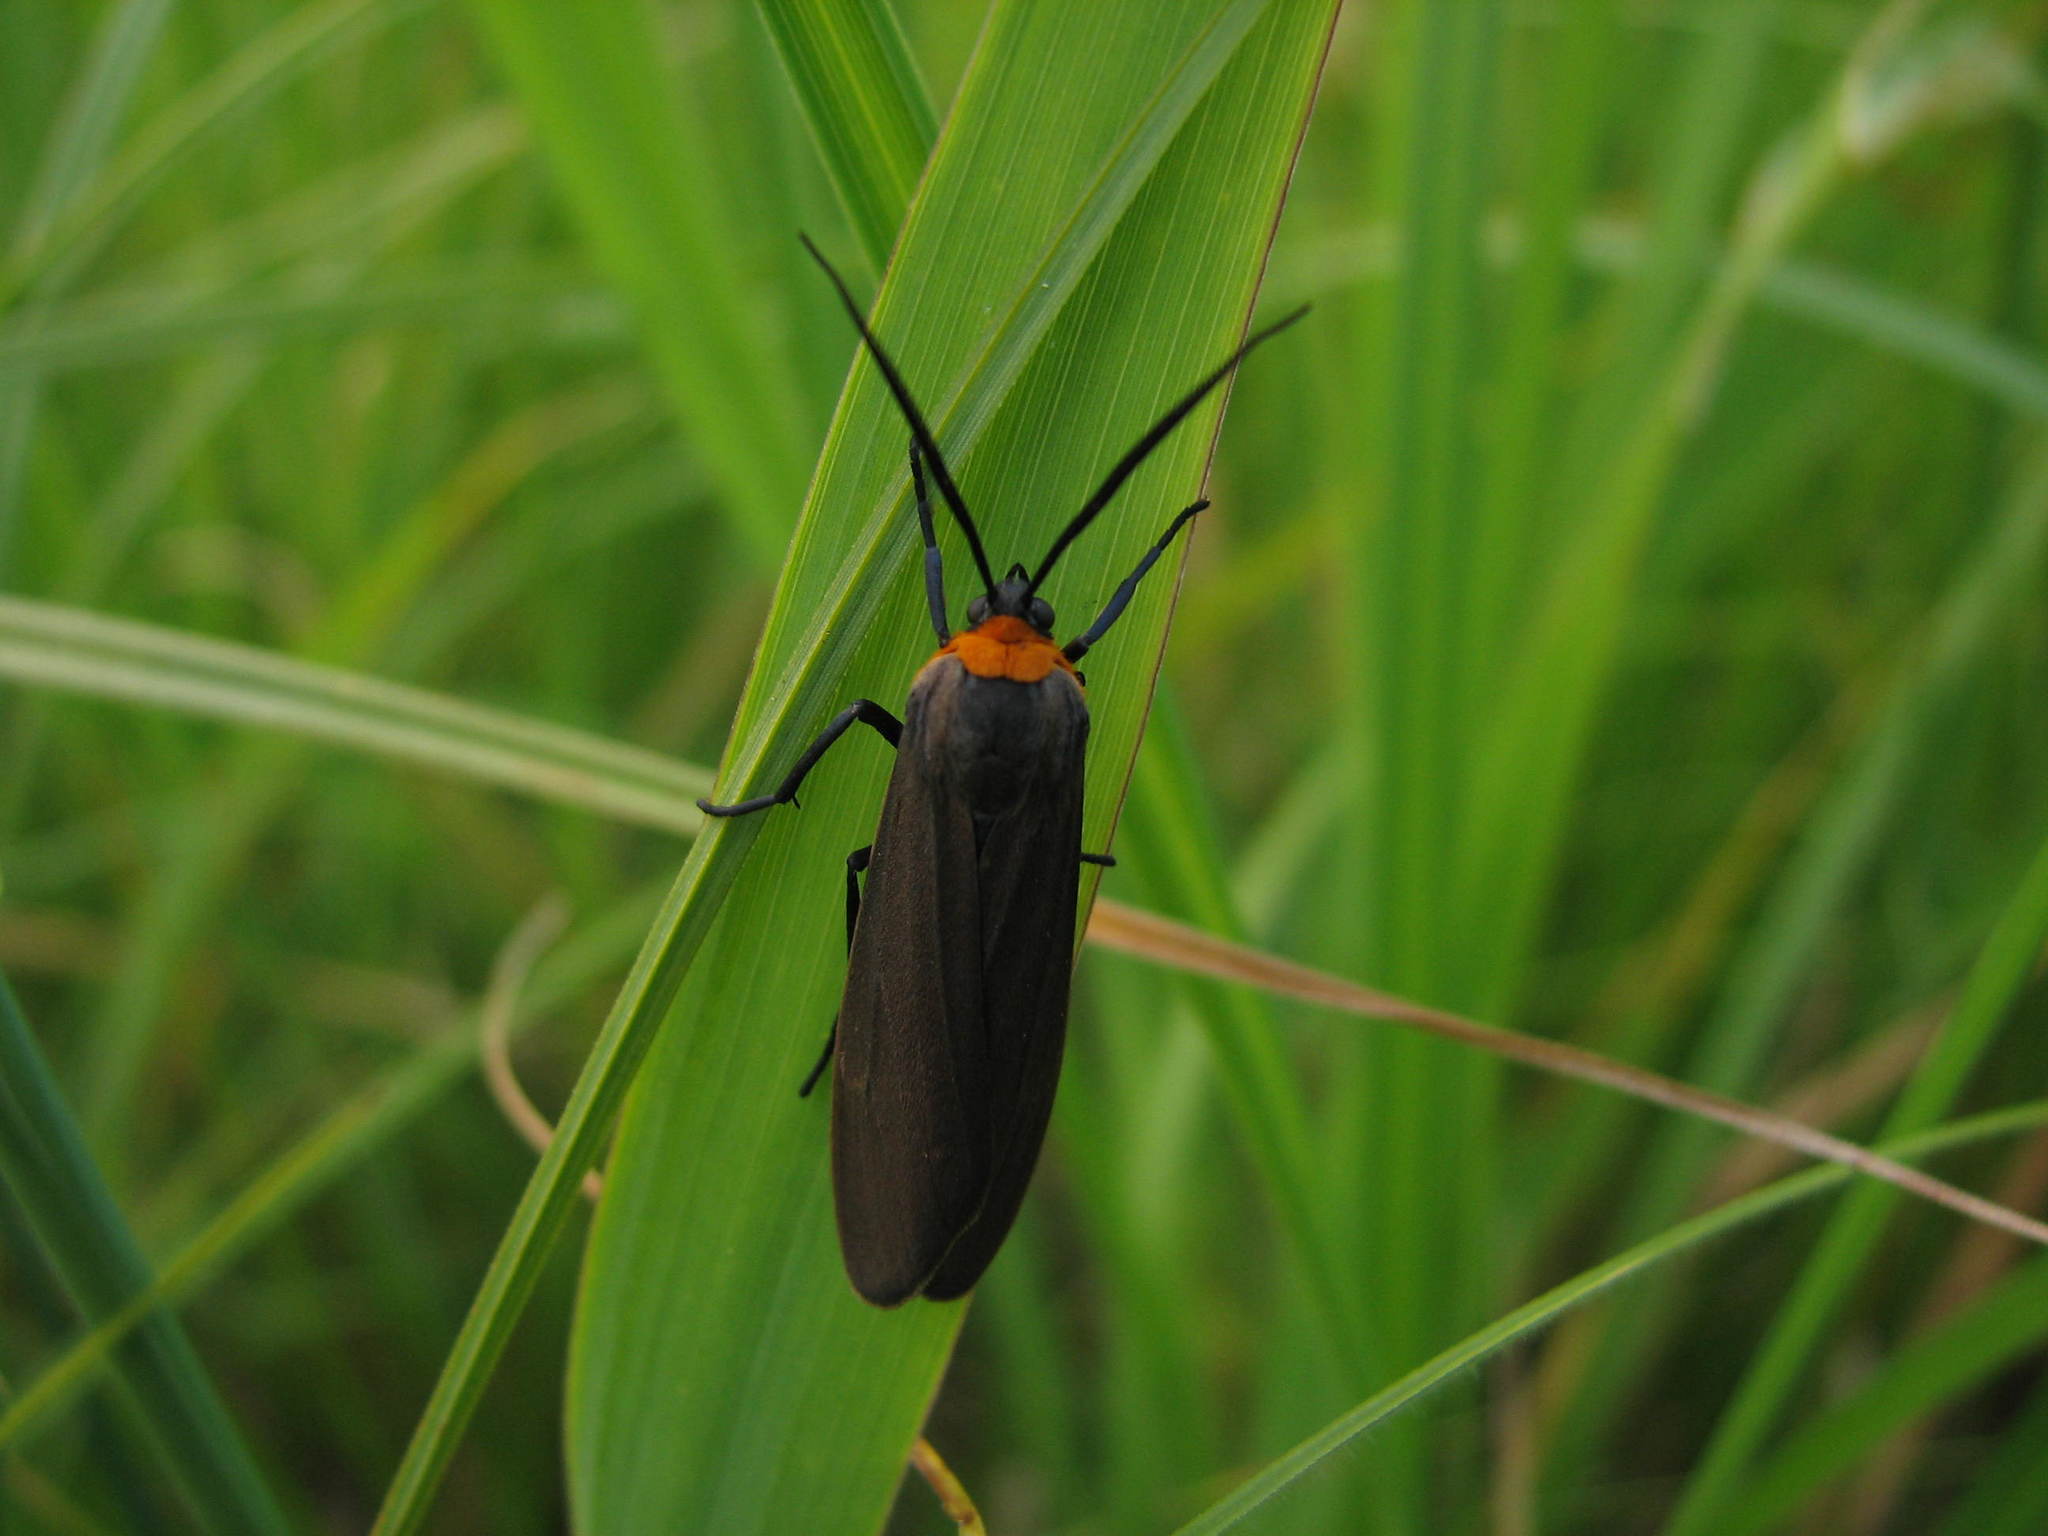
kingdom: Animalia
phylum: Arthropoda
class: Insecta
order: Lepidoptera
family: Erebidae
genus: Cisseps
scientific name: Cisseps fulvicollis
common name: Yellow-collared scape moth
